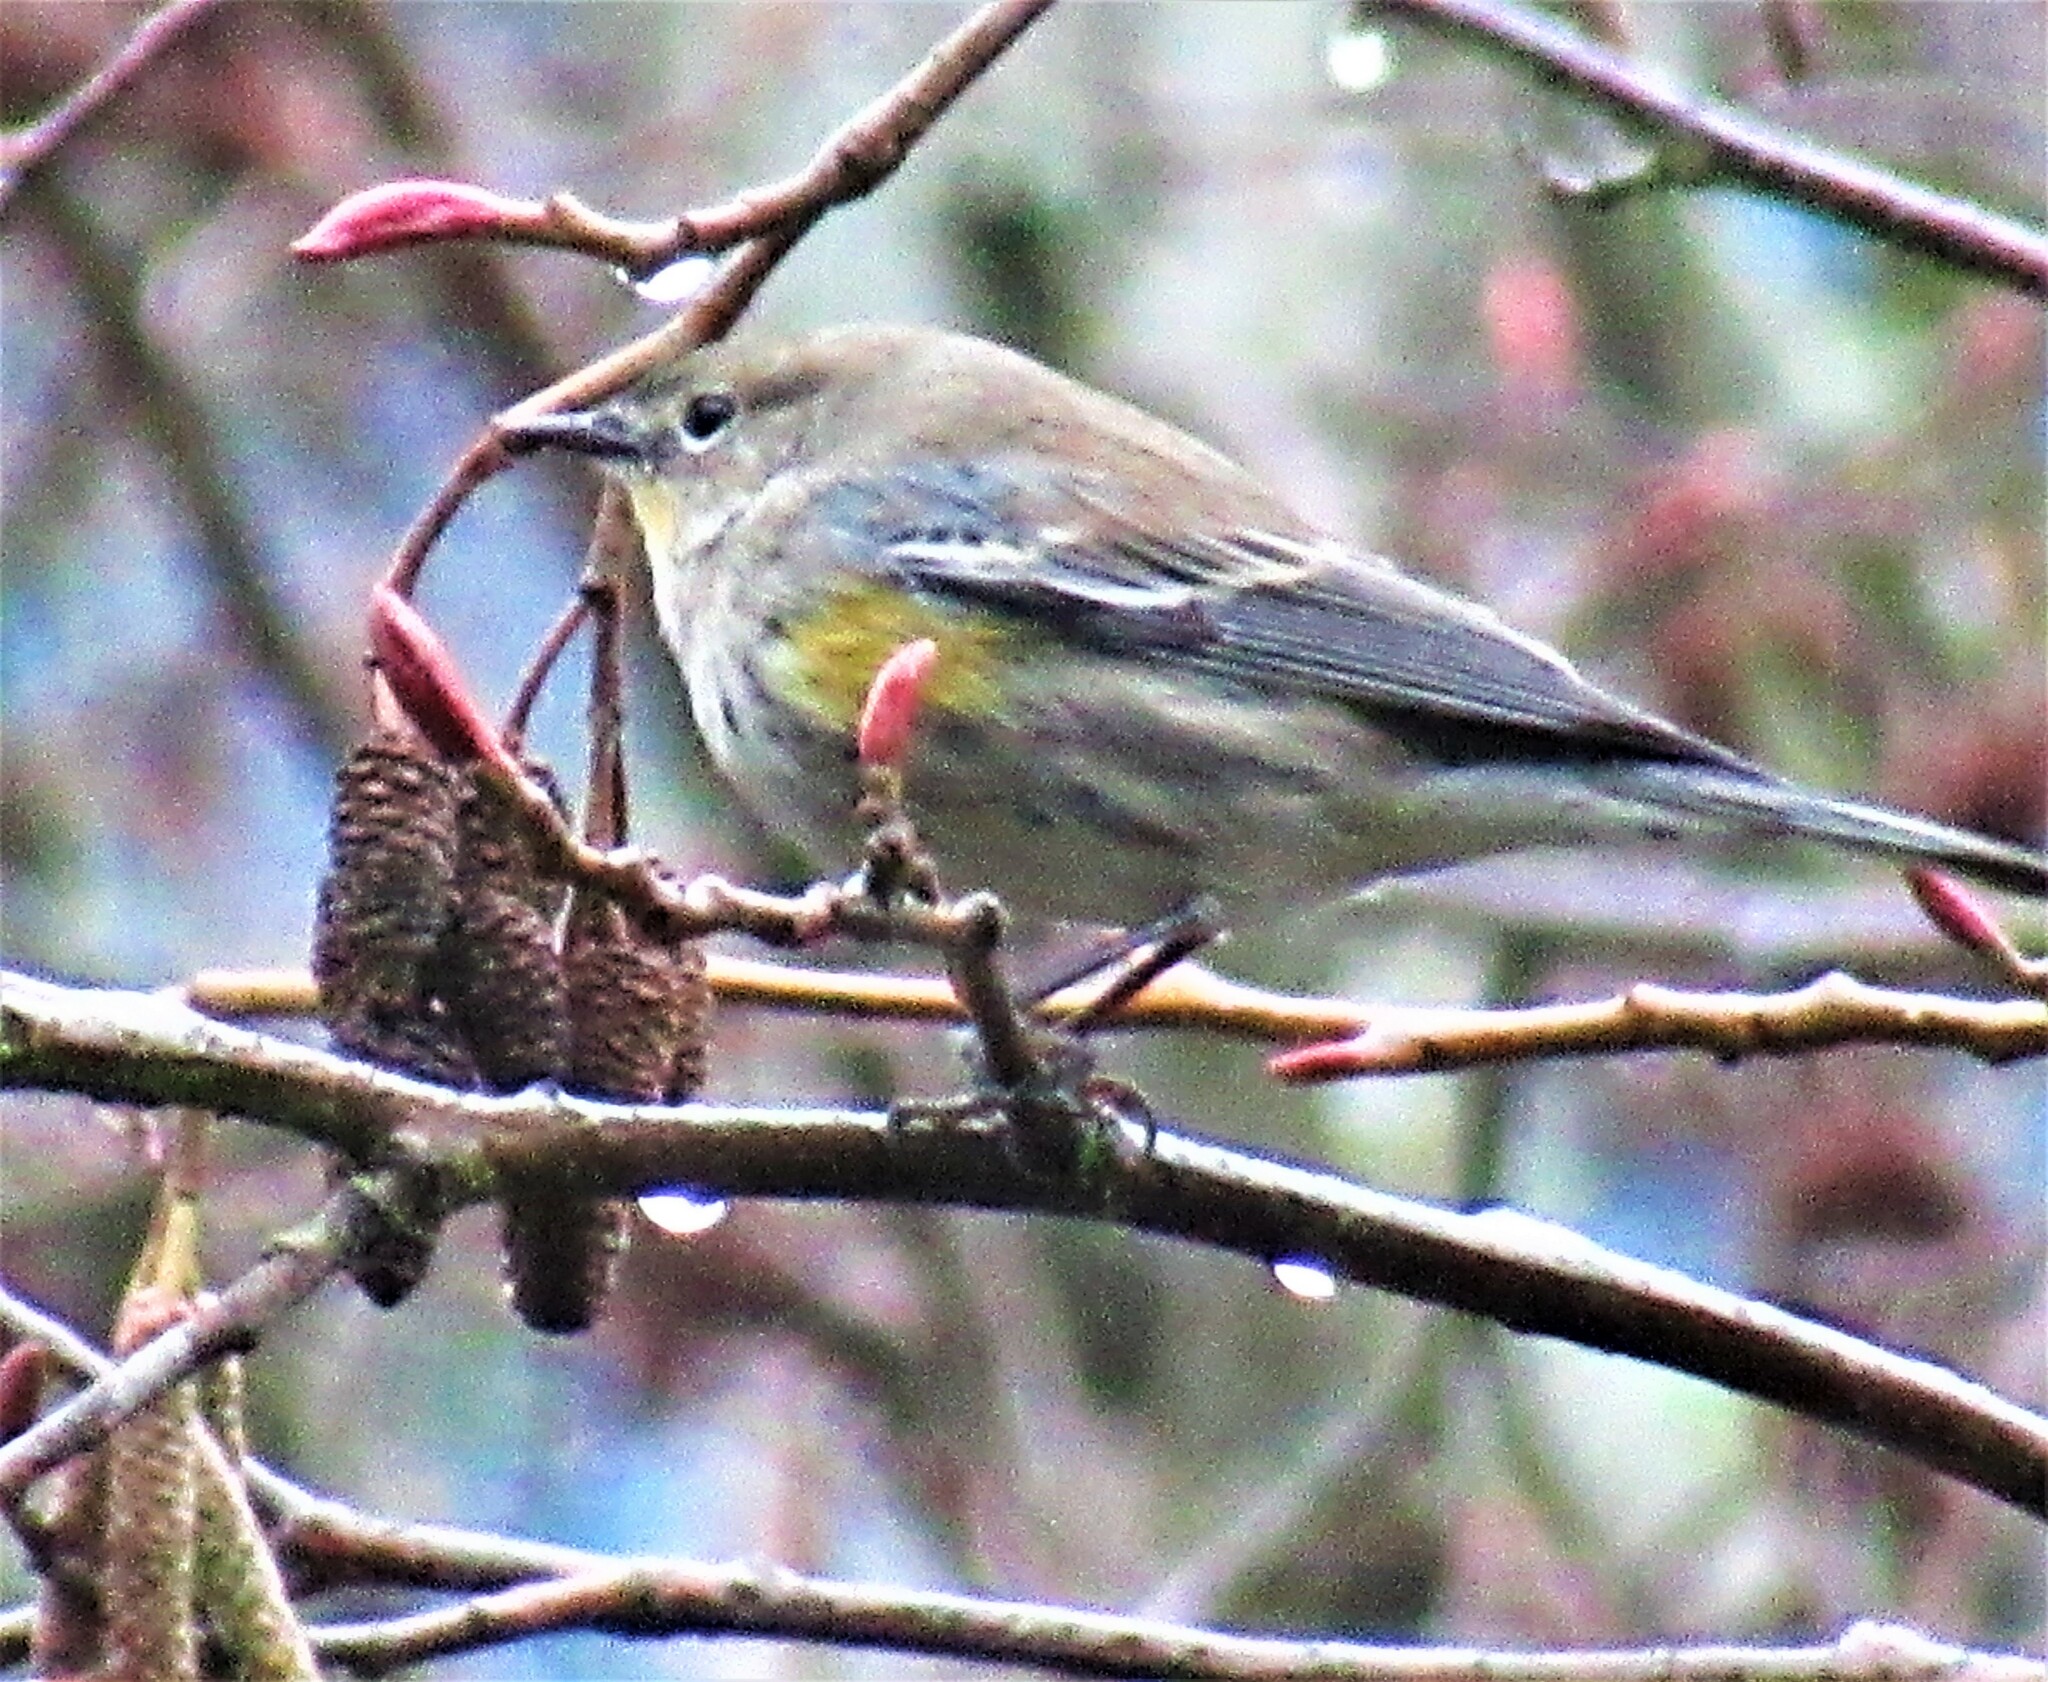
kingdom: Animalia
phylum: Chordata
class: Aves
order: Passeriformes
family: Parulidae
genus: Setophaga
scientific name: Setophaga coronata
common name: Myrtle warbler
